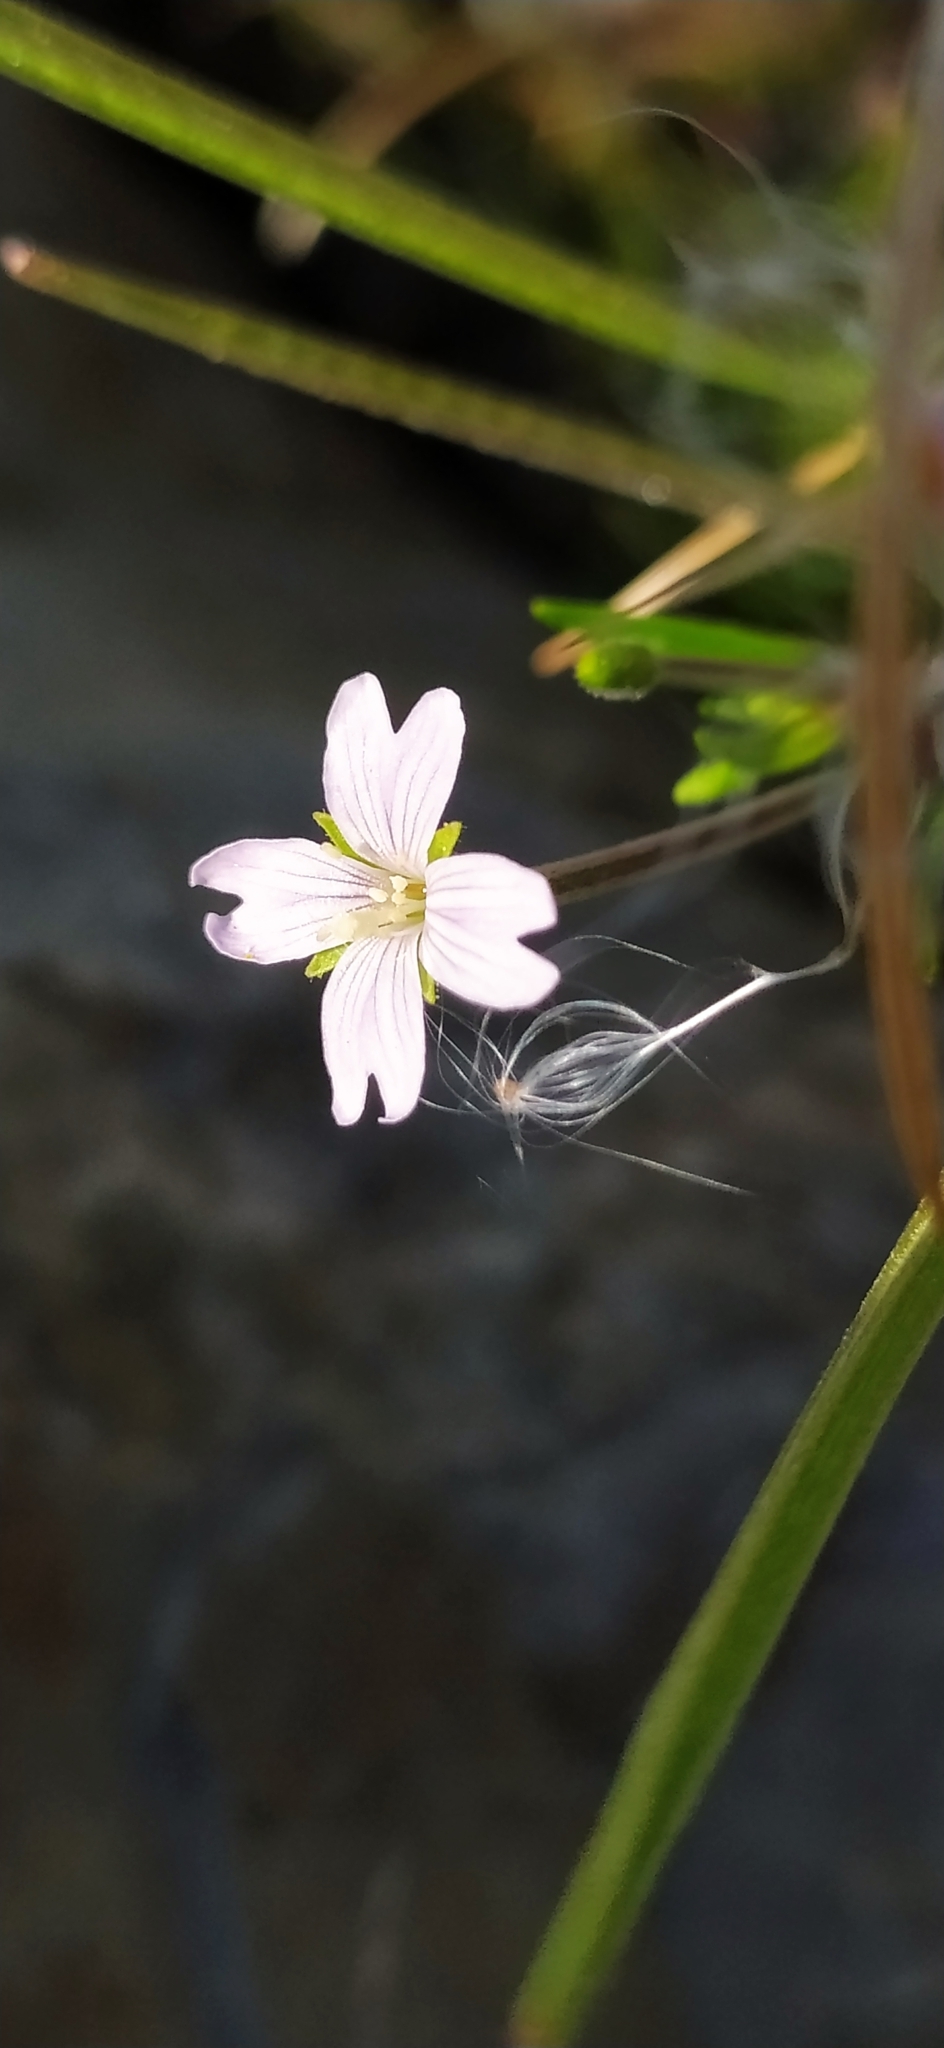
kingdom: Plantae
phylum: Tracheophyta
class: Magnoliopsida
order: Myrtales
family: Onagraceae
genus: Epilobium
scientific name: Epilobium palustre
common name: Marsh willowherb
